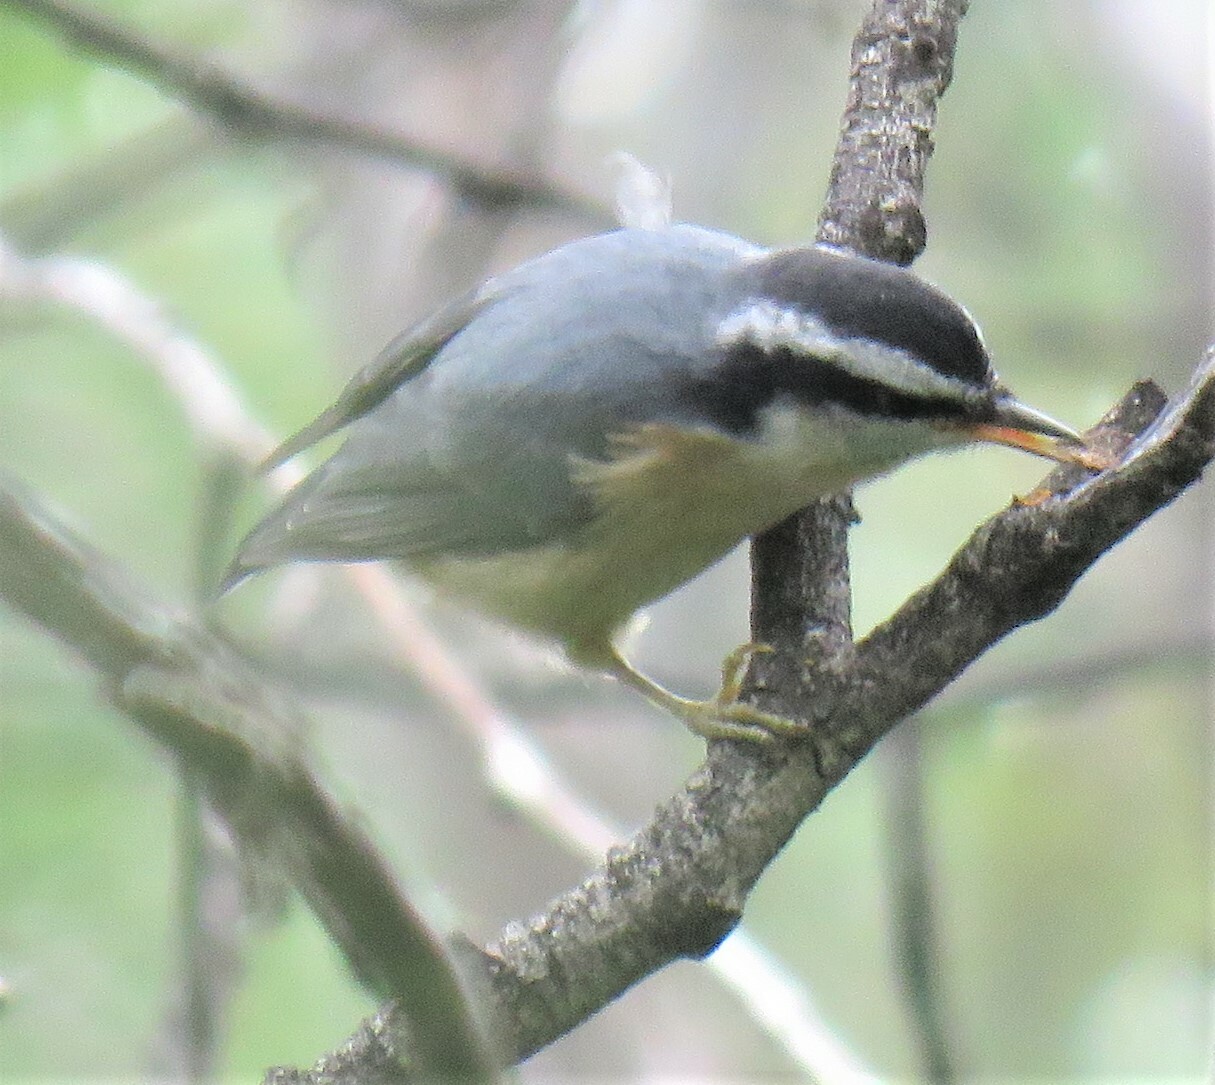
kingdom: Animalia
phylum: Chordata
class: Aves
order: Passeriformes
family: Sittidae
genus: Sitta
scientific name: Sitta canadensis
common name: Red-breasted nuthatch
